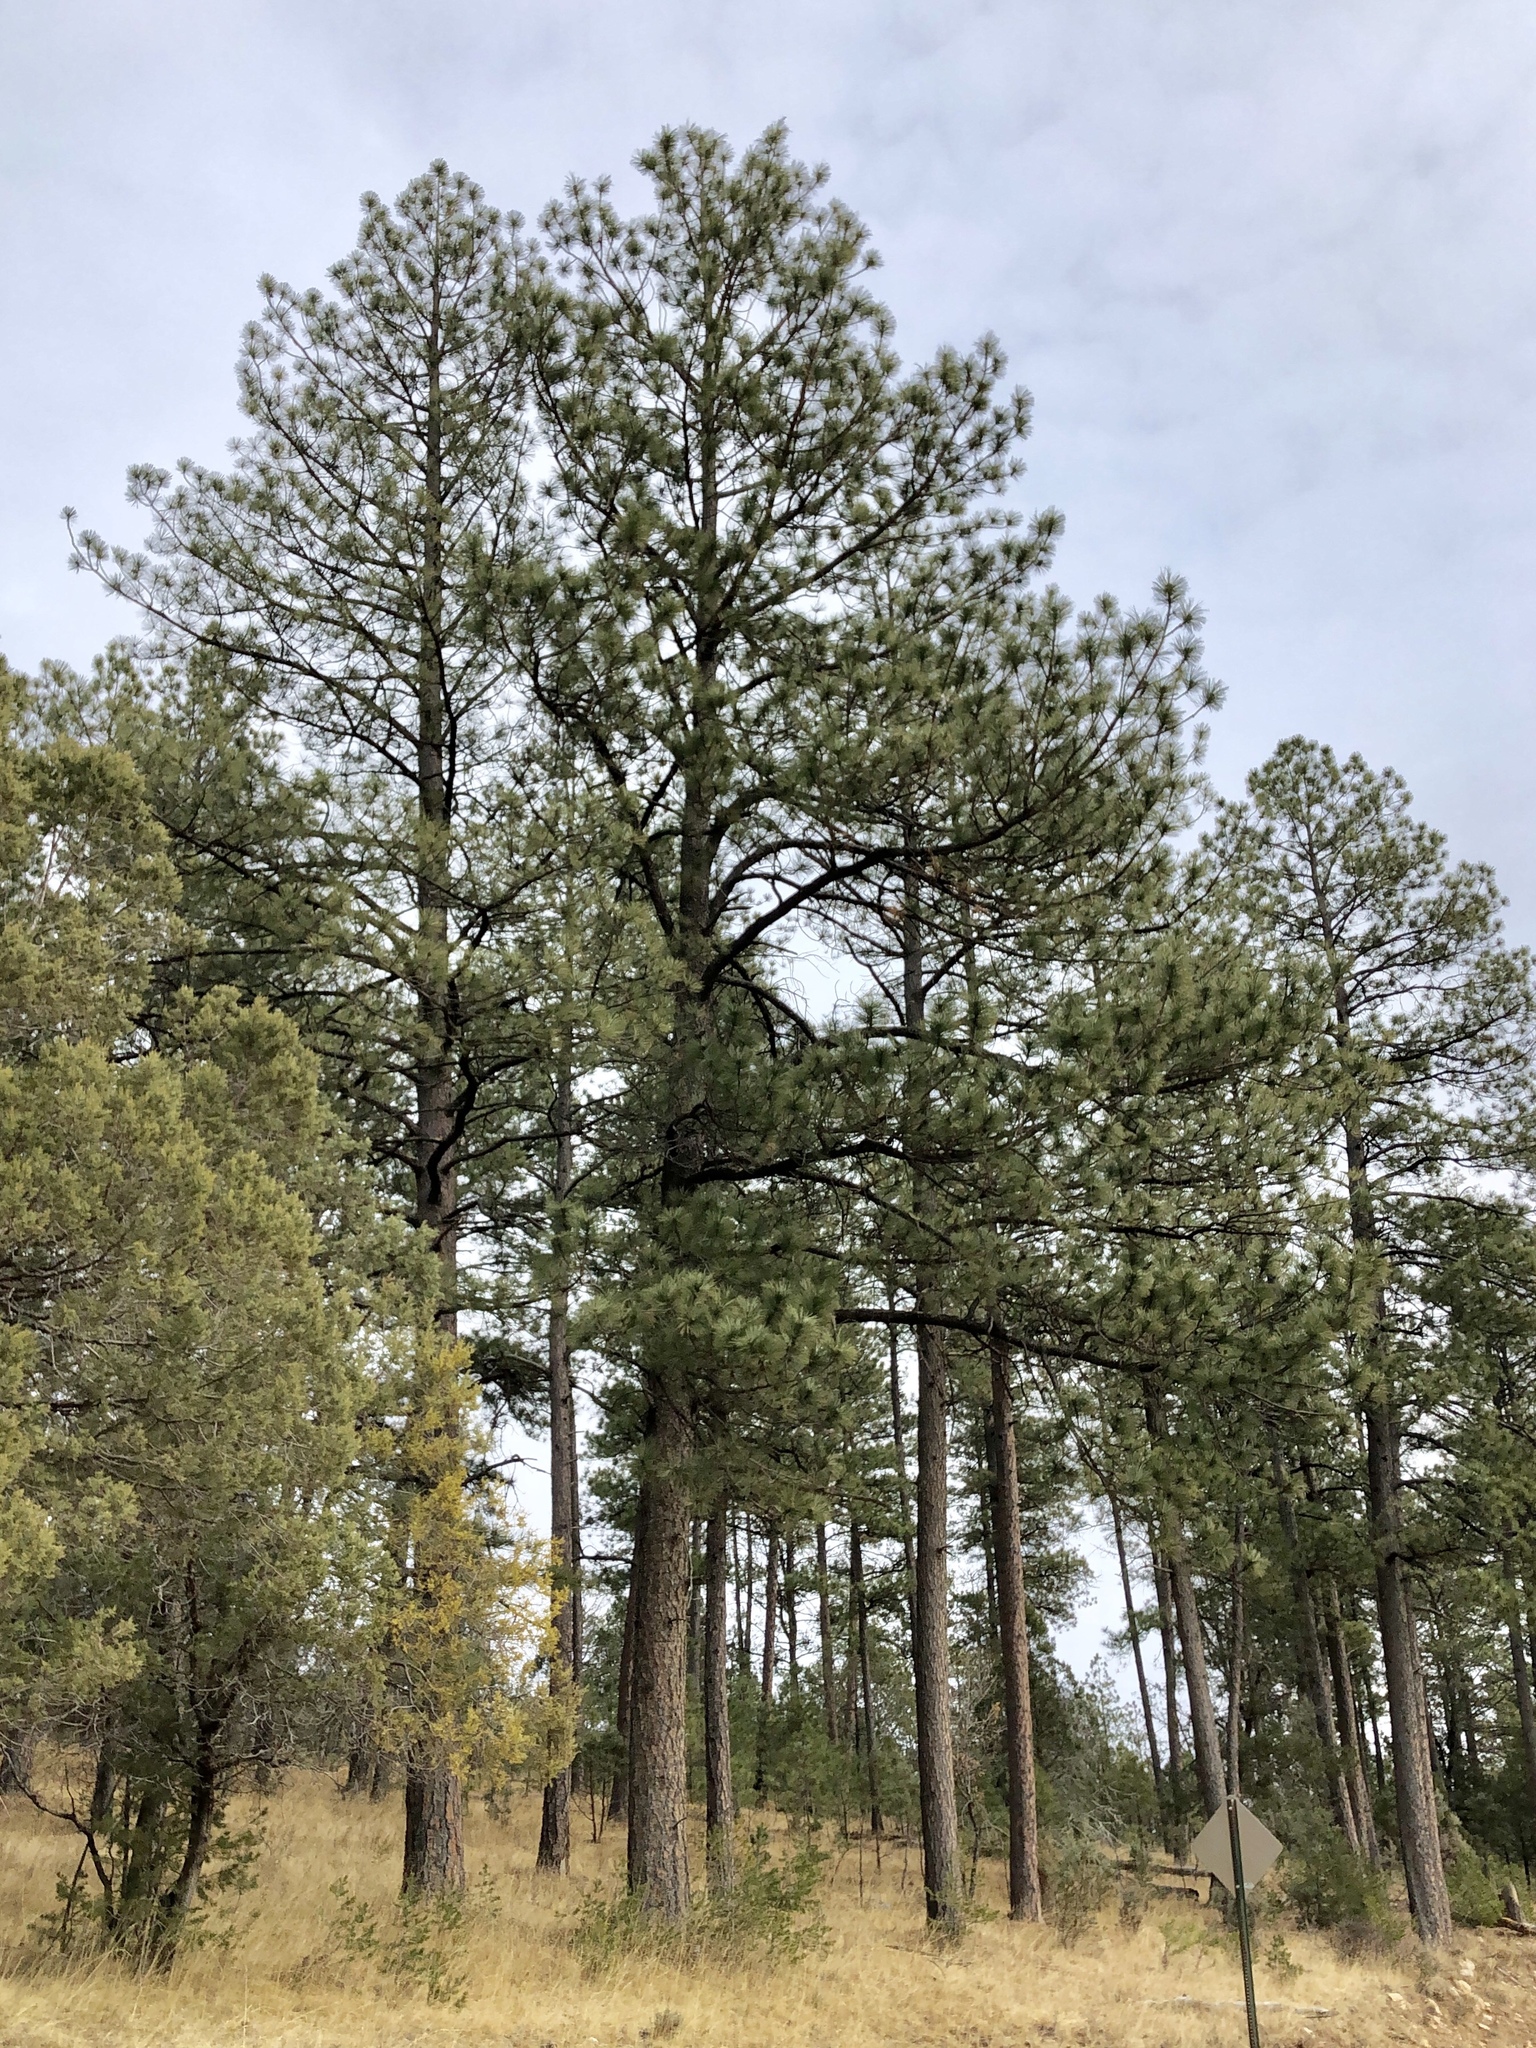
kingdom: Plantae
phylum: Tracheophyta
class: Pinopsida
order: Pinales
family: Pinaceae
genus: Pinus
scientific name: Pinus ponderosa
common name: Western yellow-pine
